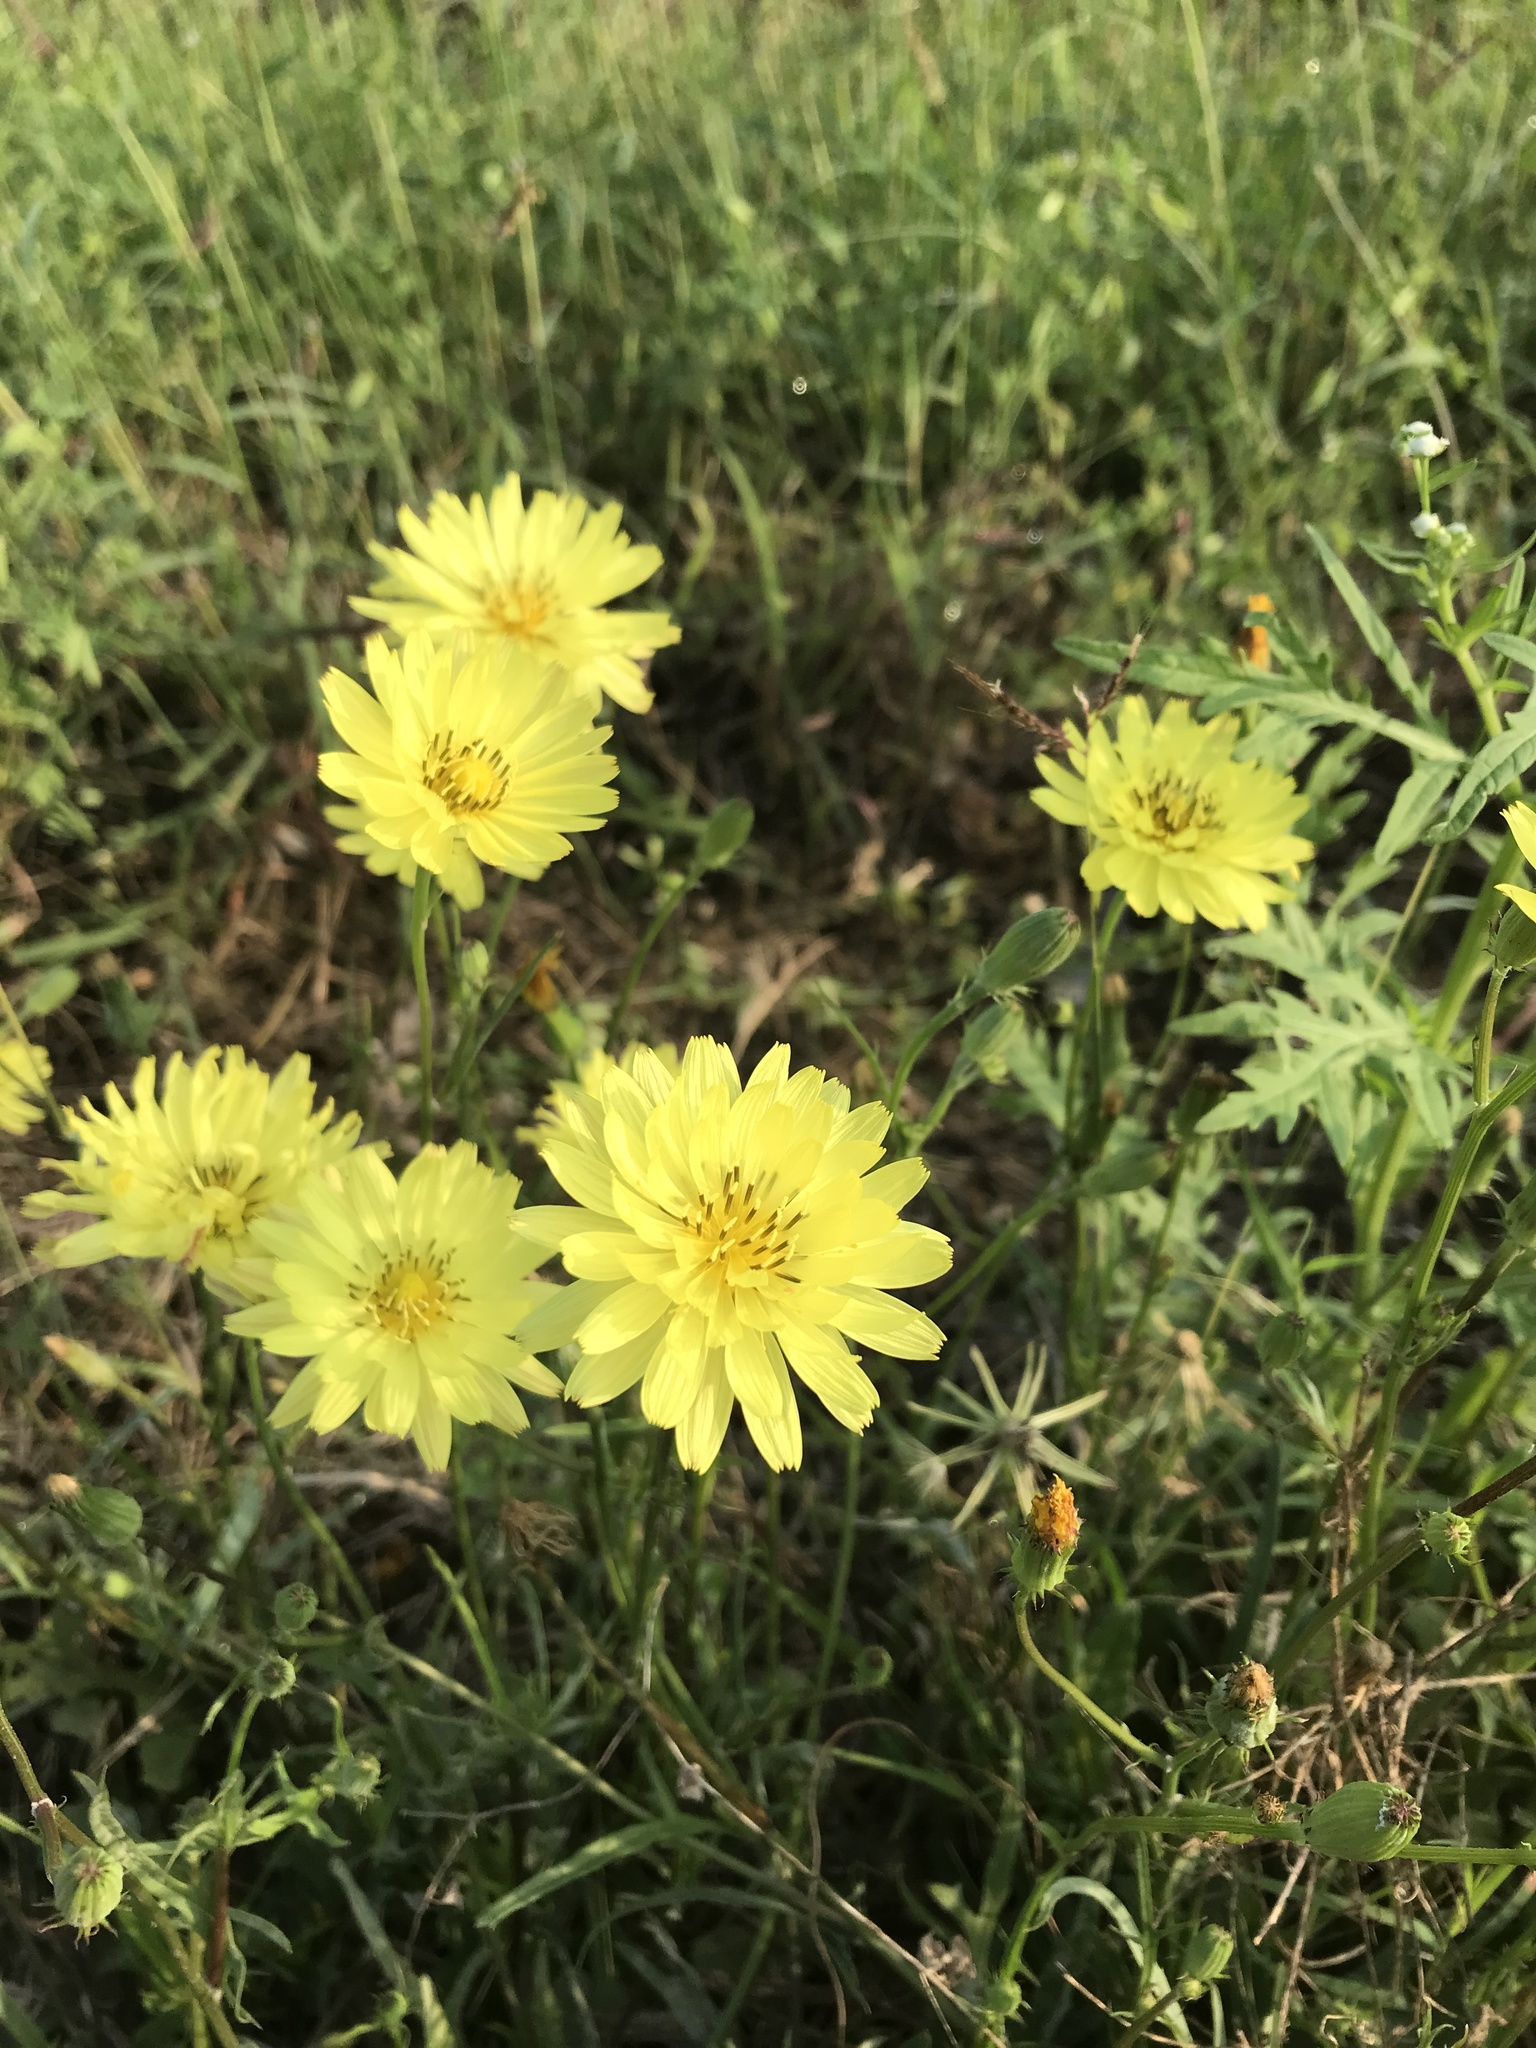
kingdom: Plantae
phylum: Tracheophyta
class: Magnoliopsida
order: Asterales
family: Asteraceae
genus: Pyrrhopappus
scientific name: Pyrrhopappus pauciflorus
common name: Texas false dandelion
